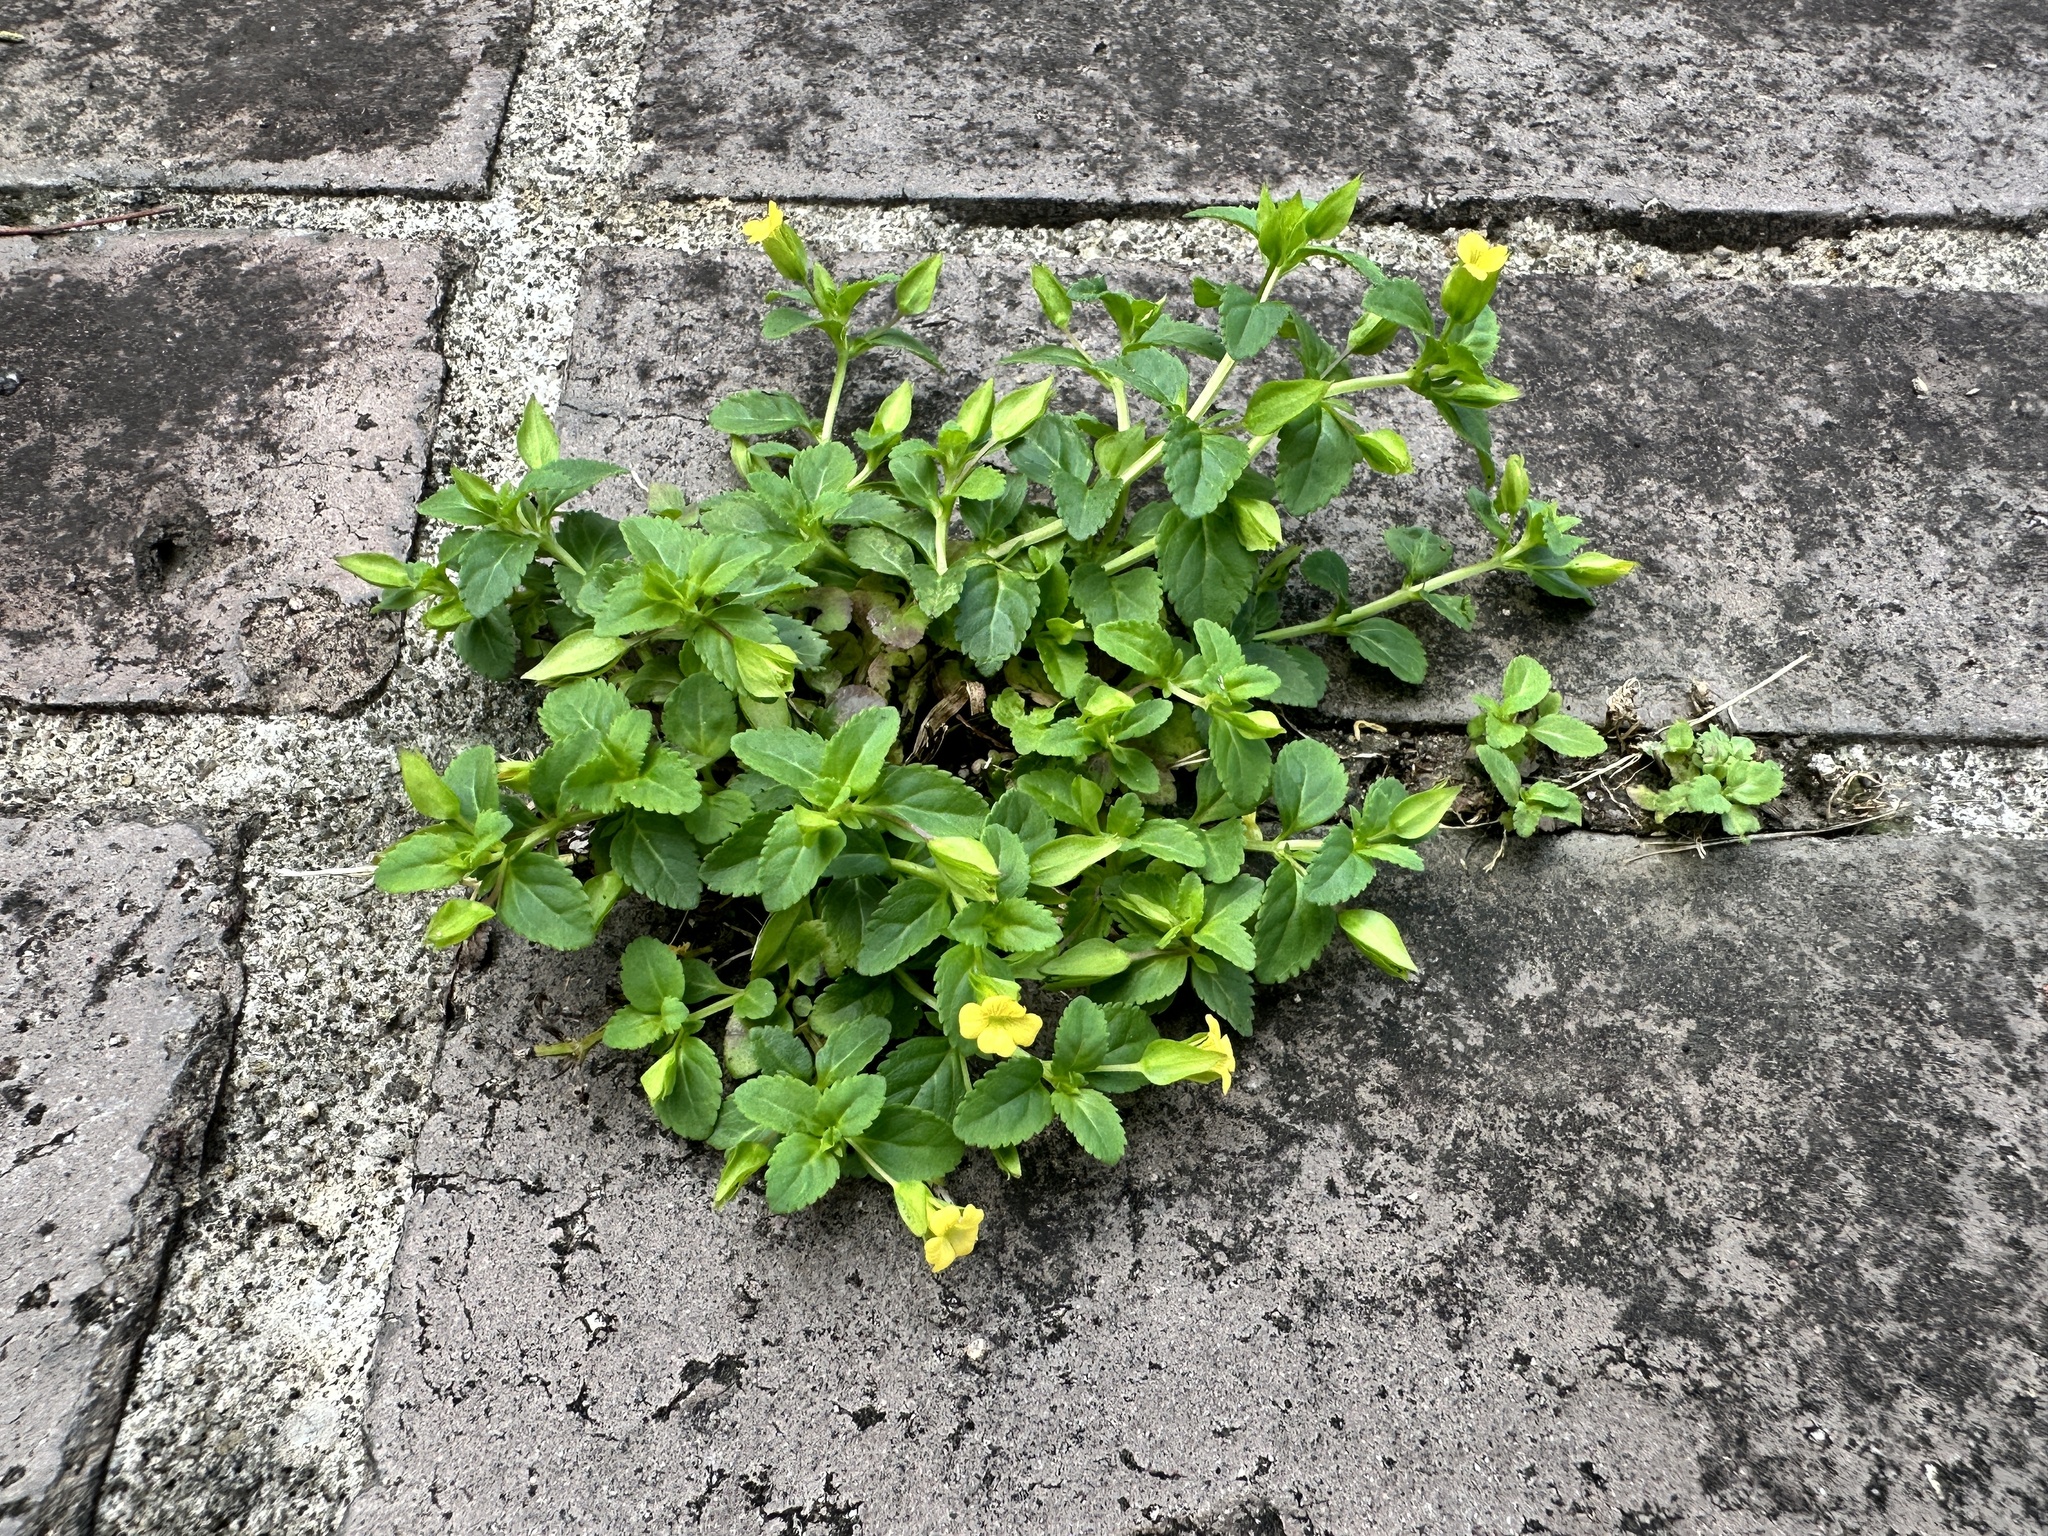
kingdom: Plantae
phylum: Tracheophyta
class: Magnoliopsida
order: Lamiales
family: Plantaginaceae
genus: Mecardonia
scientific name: Mecardonia procumbens
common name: Baby jump-up
